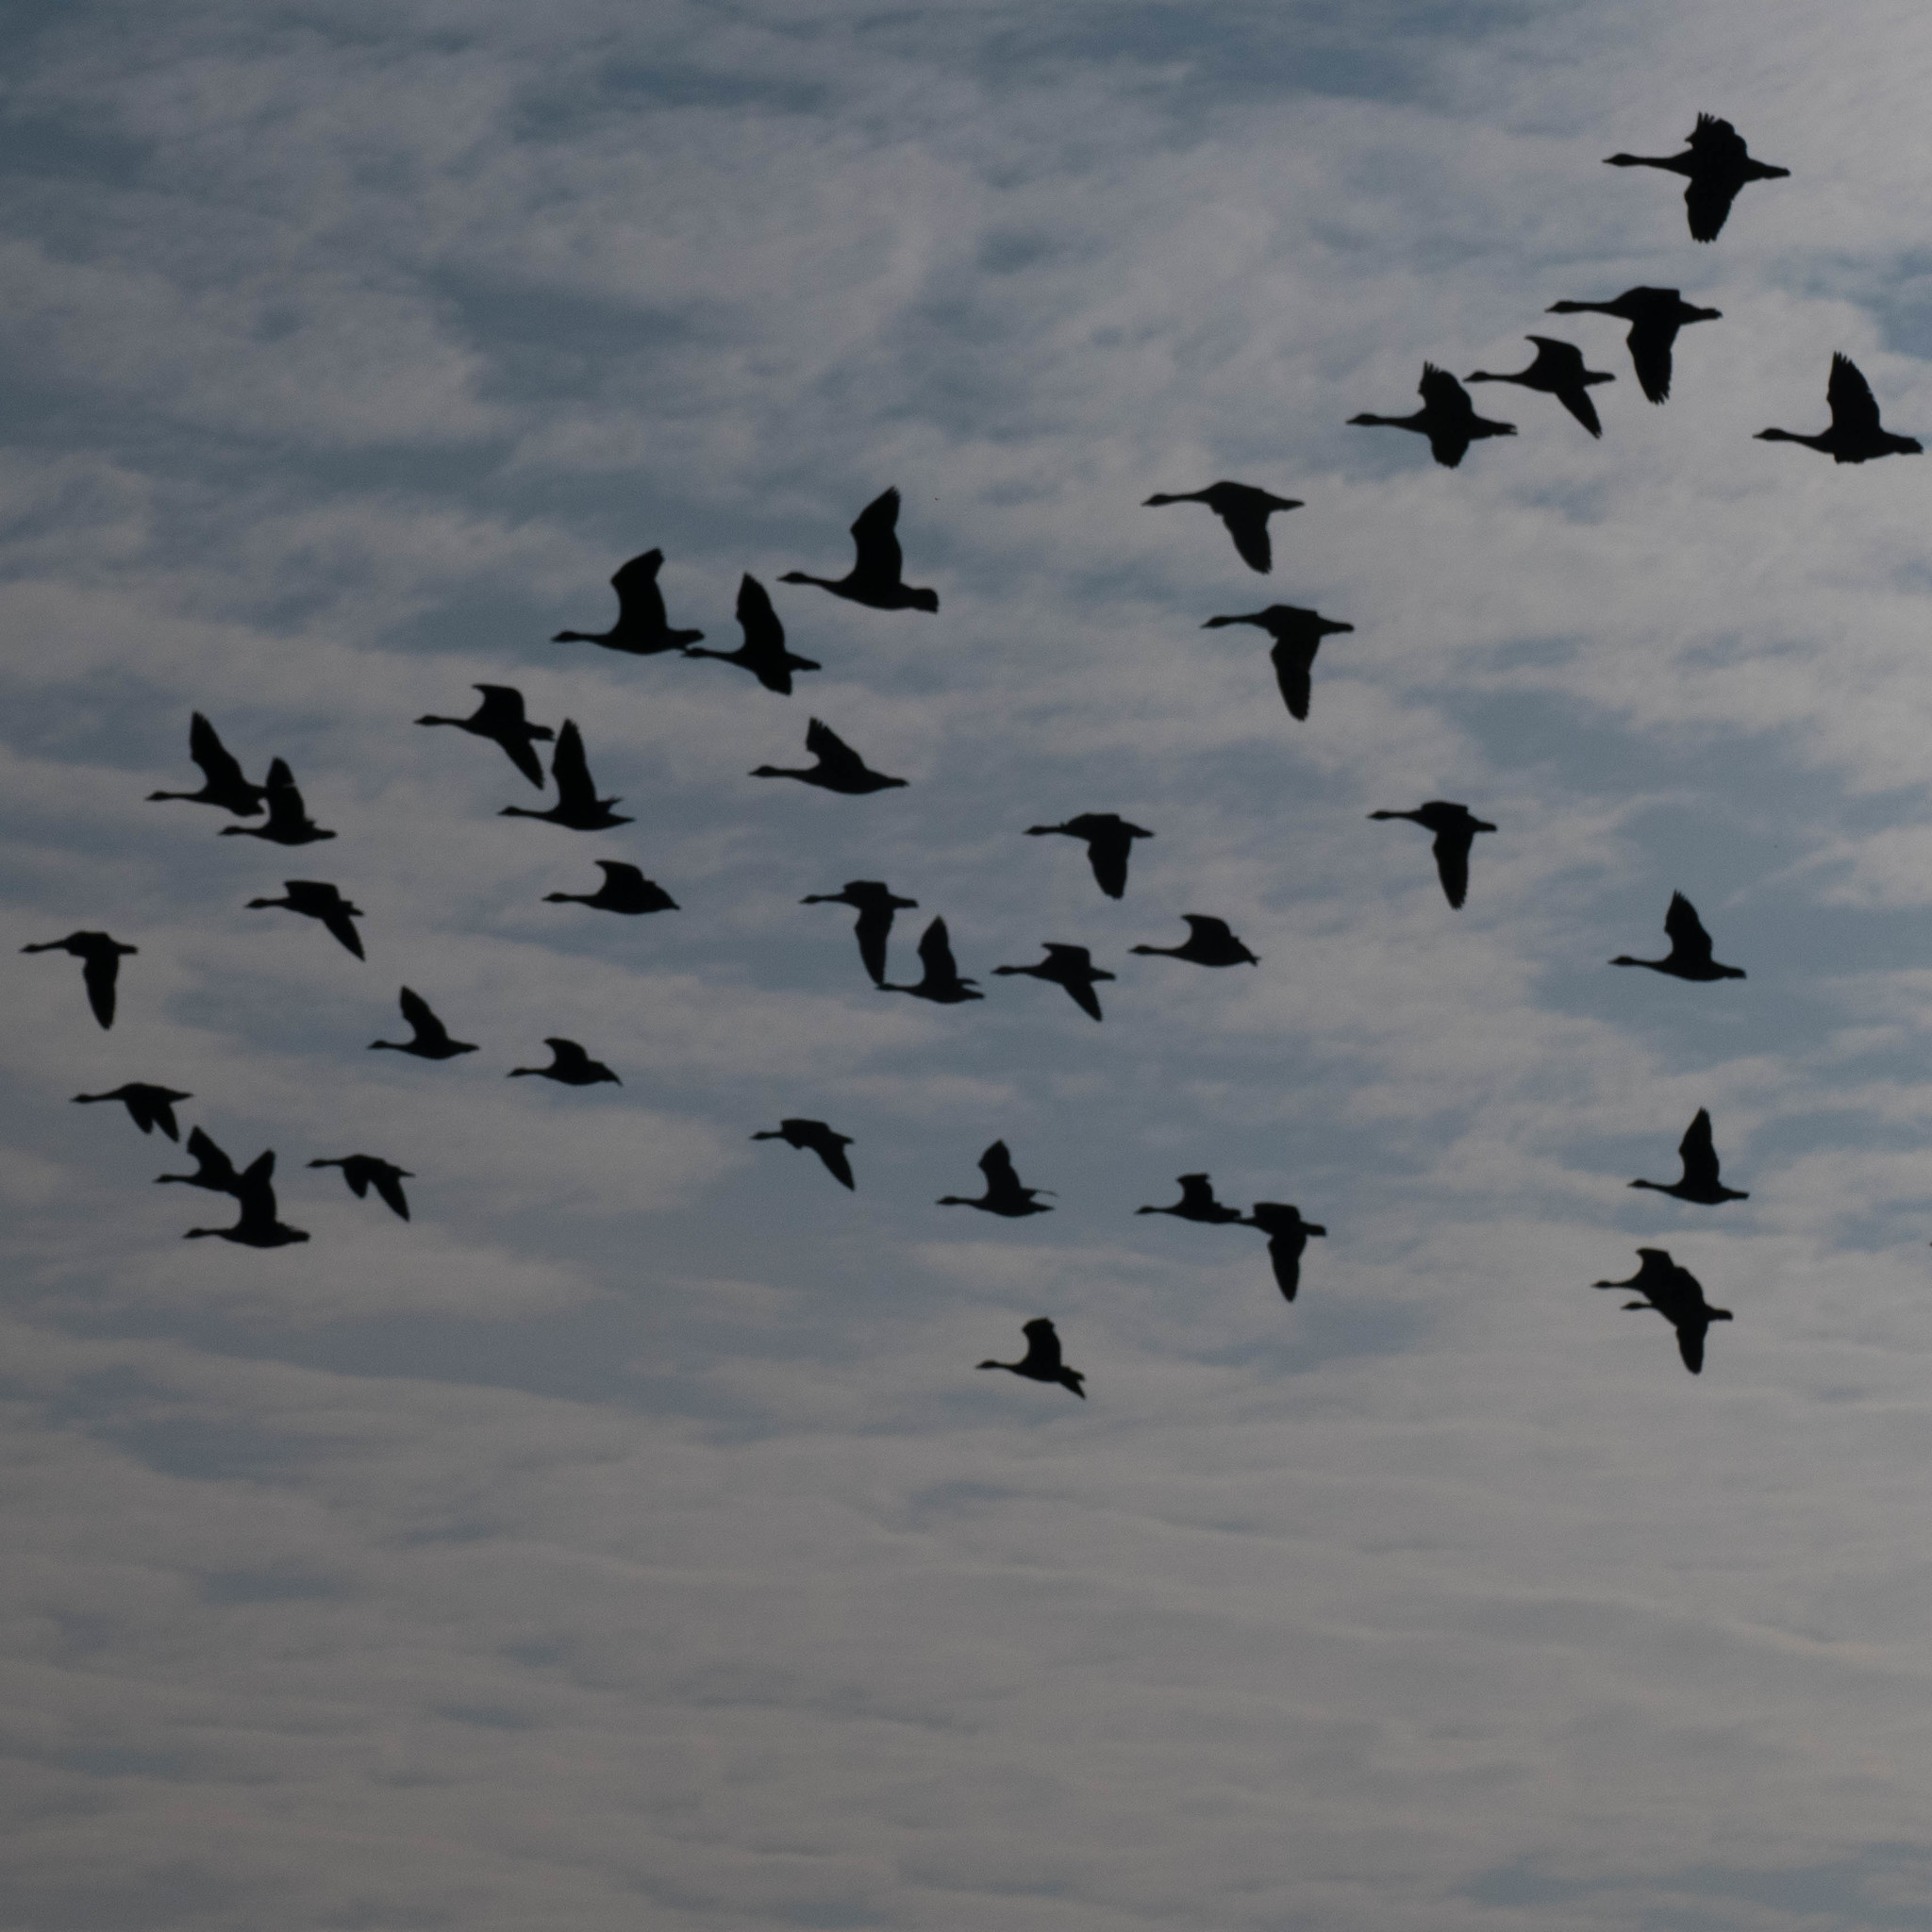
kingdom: Animalia
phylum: Chordata
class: Aves
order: Anseriformes
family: Anatidae
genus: Branta
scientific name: Branta canadensis
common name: Canada goose
